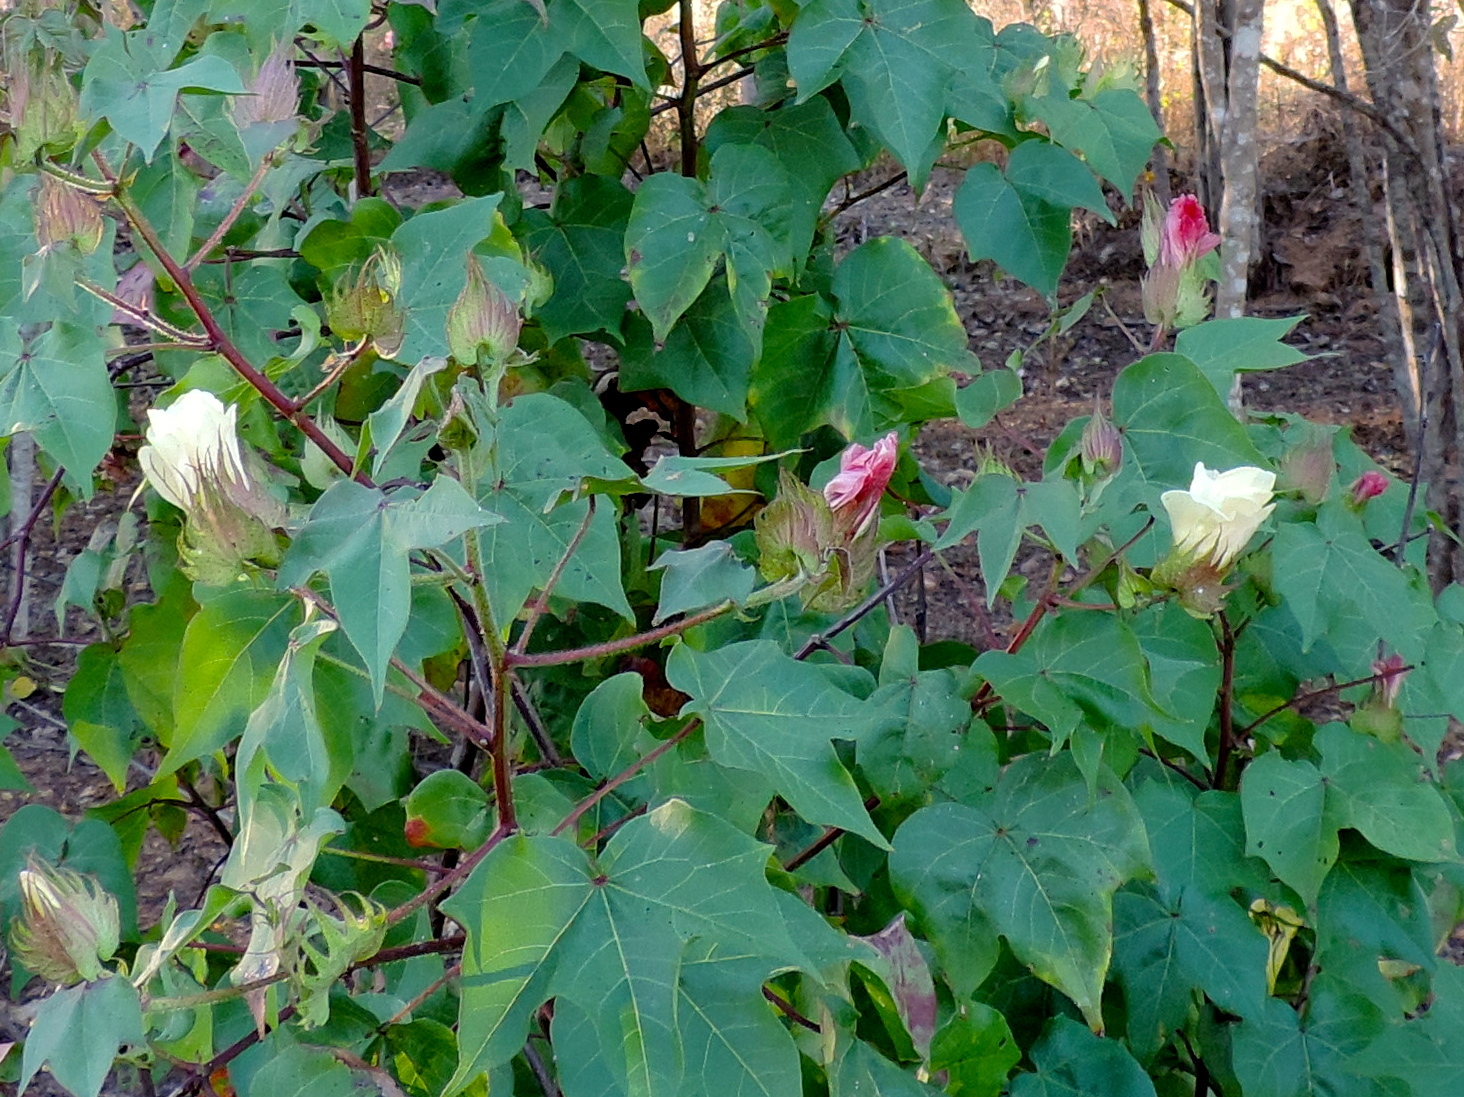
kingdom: Plantae
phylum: Tracheophyta
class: Magnoliopsida
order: Malvales
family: Malvaceae
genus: Gossypium
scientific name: Gossypium hirsutum
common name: Cotton
